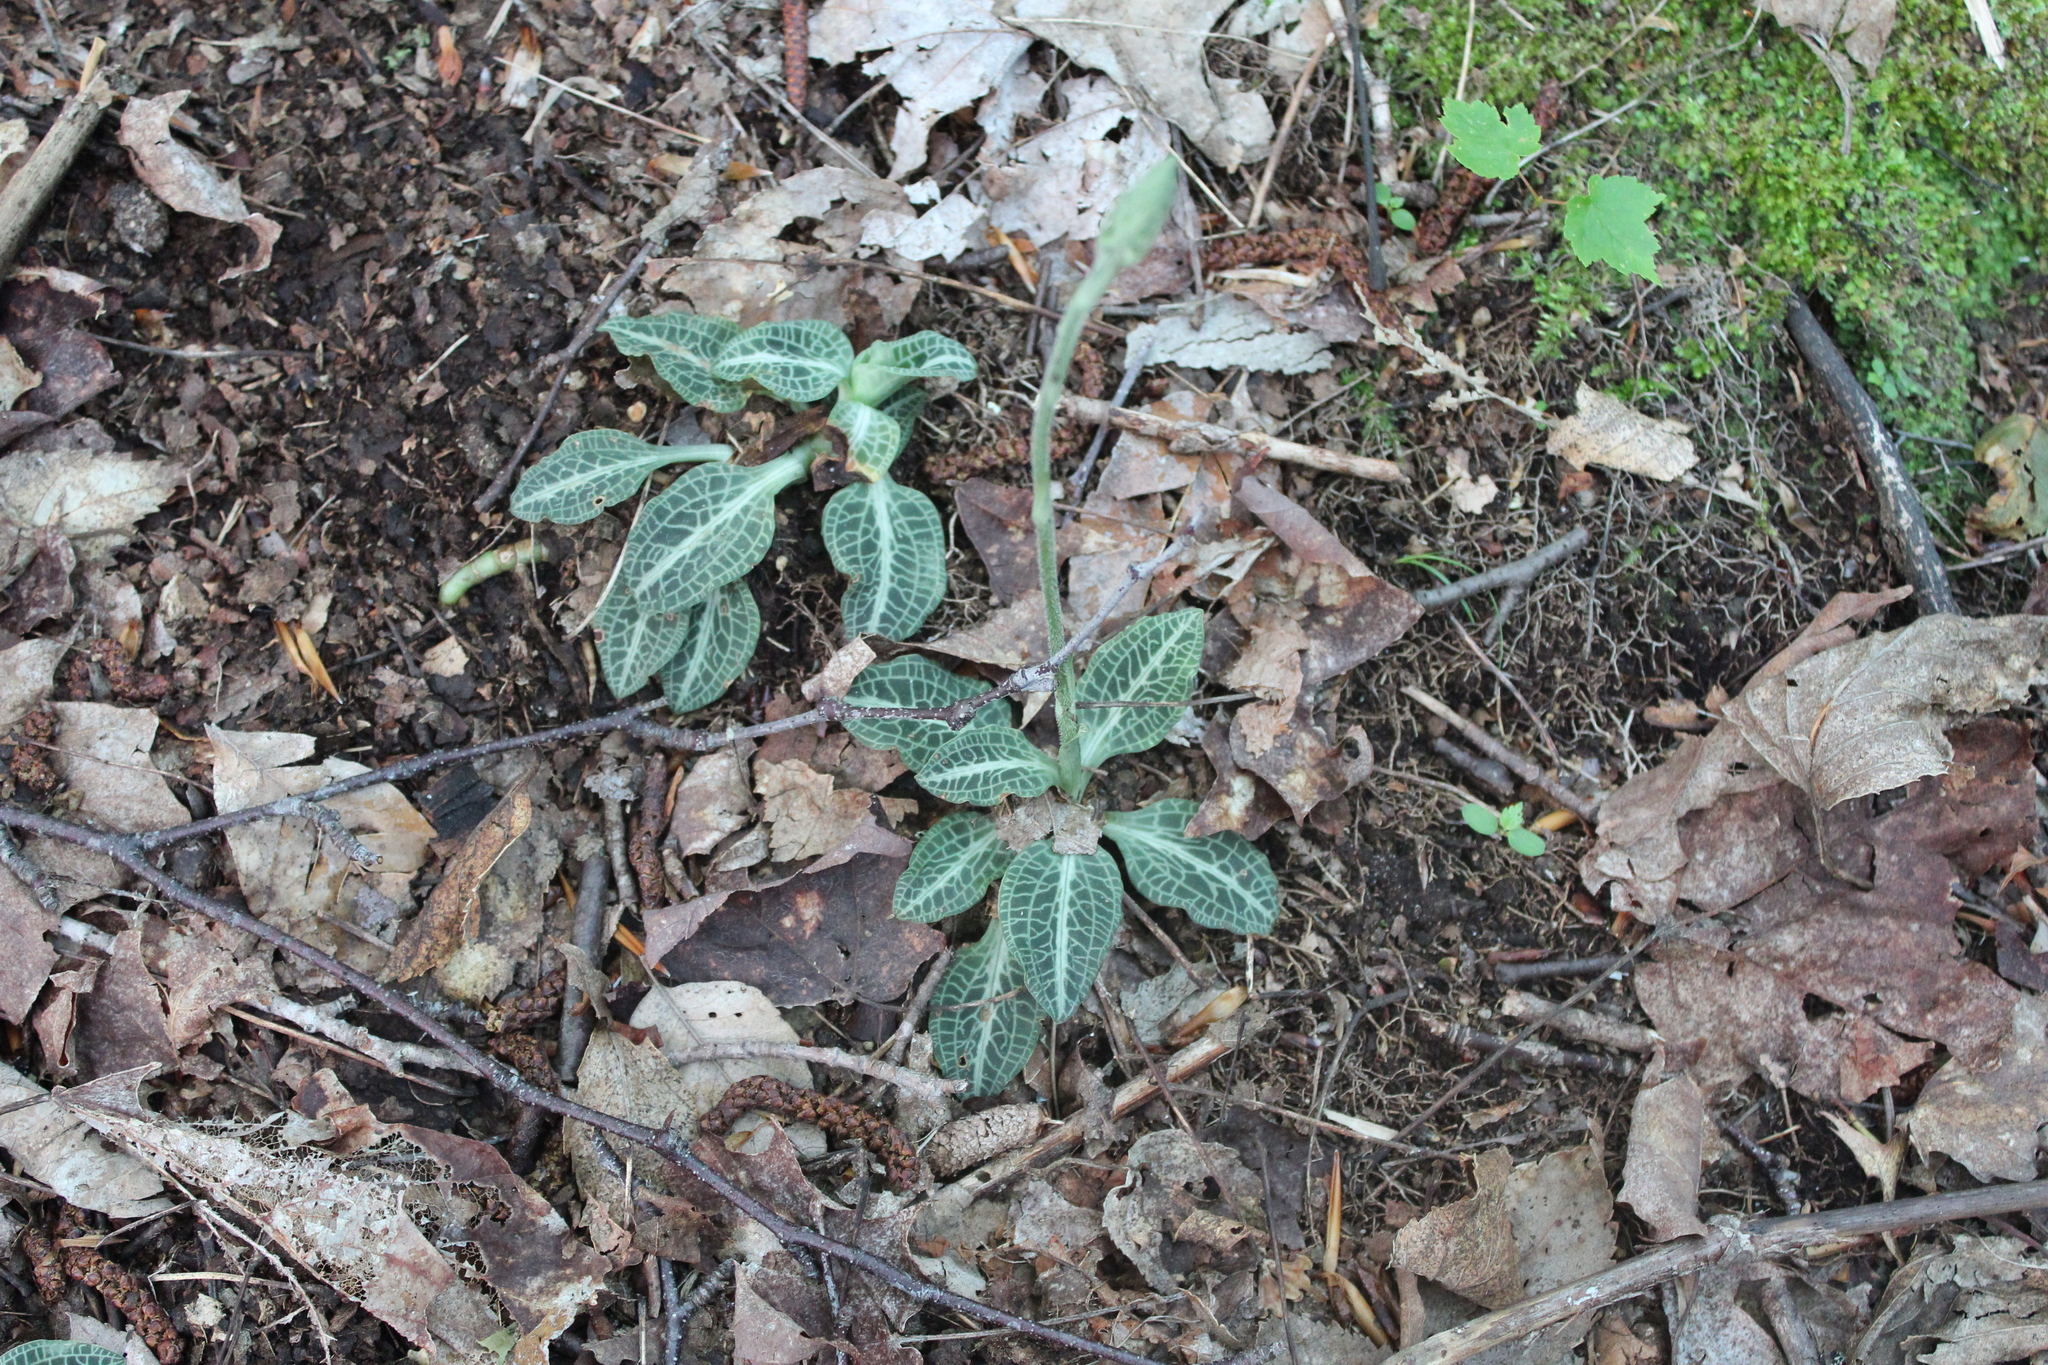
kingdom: Plantae
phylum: Tracheophyta
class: Liliopsida
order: Asparagales
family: Orchidaceae
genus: Goodyera
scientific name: Goodyera pubescens
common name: Downy rattlesnake-plantain
